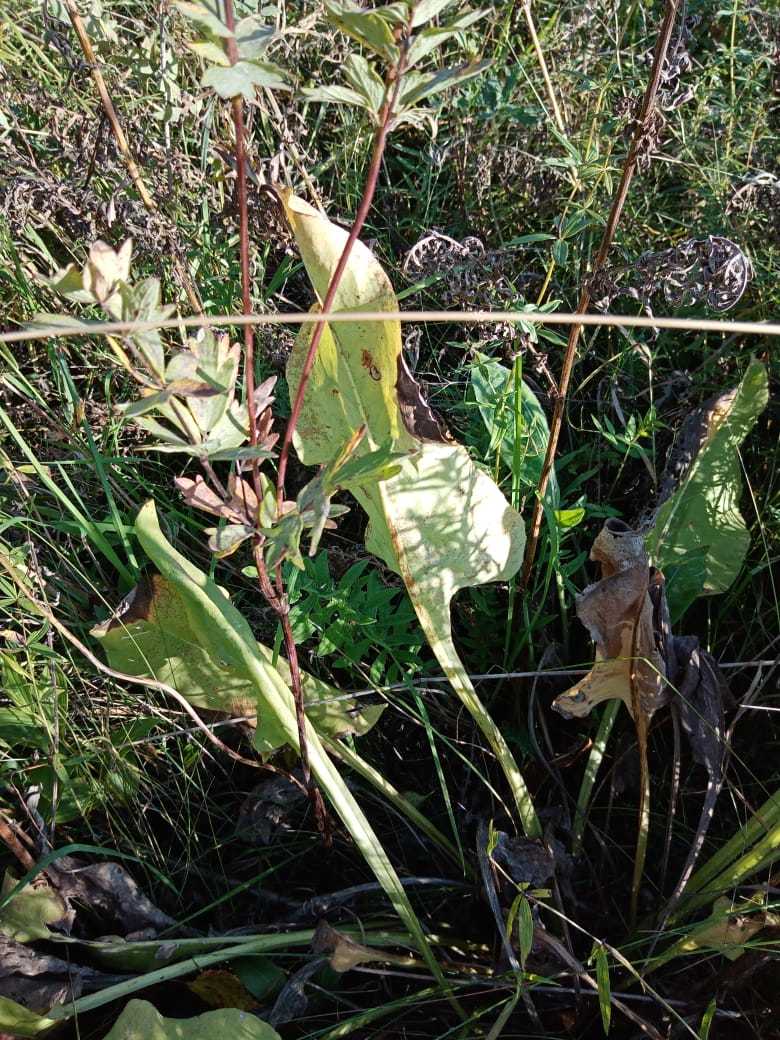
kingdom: Plantae
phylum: Tracheophyta
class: Magnoliopsida
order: Boraginales
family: Boraginaceae
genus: Pulmonaria
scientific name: Pulmonaria mollis
